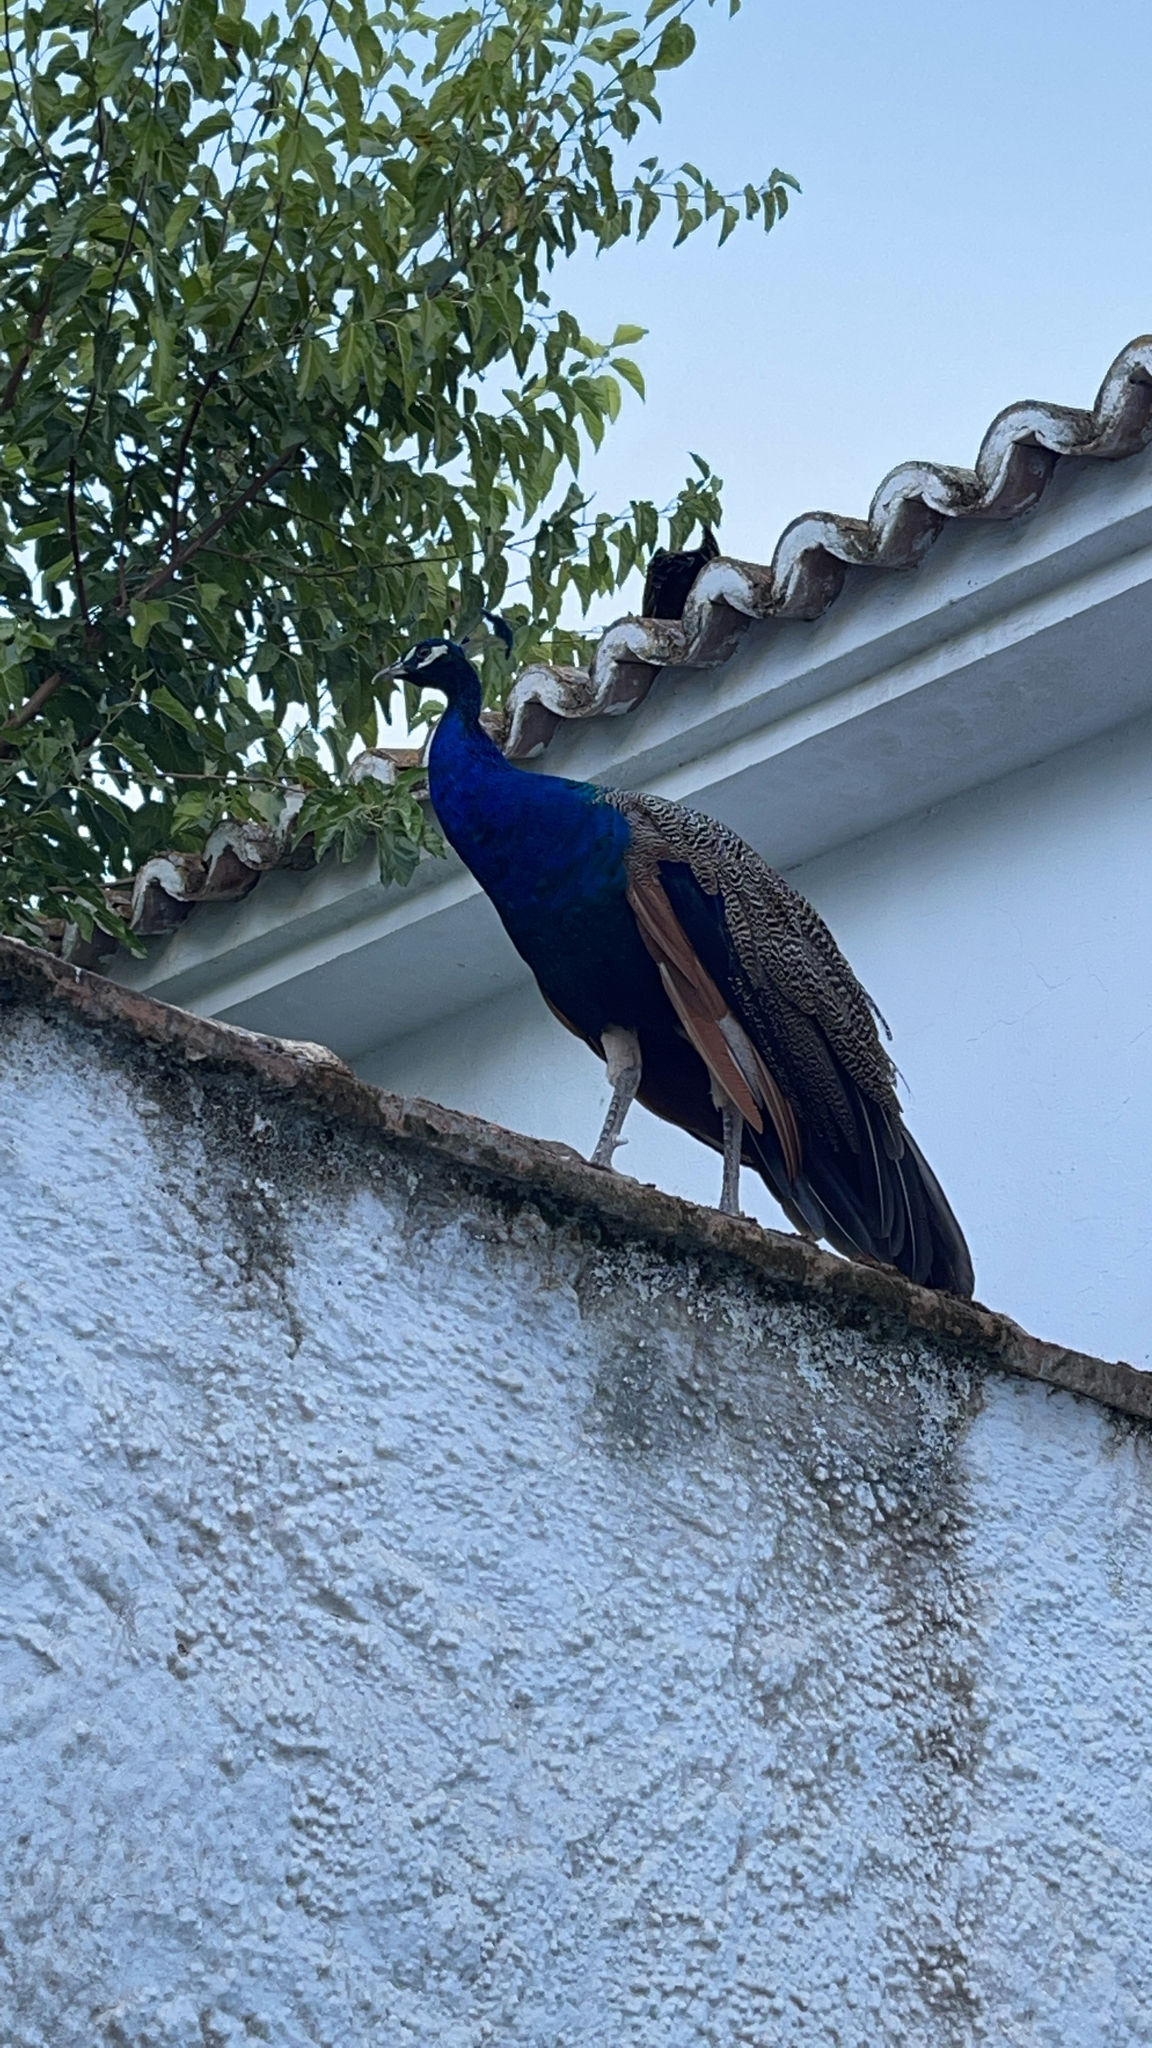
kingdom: Animalia
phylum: Chordata
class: Aves
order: Galliformes
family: Phasianidae
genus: Pavo
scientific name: Pavo cristatus
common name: Indian peafowl
